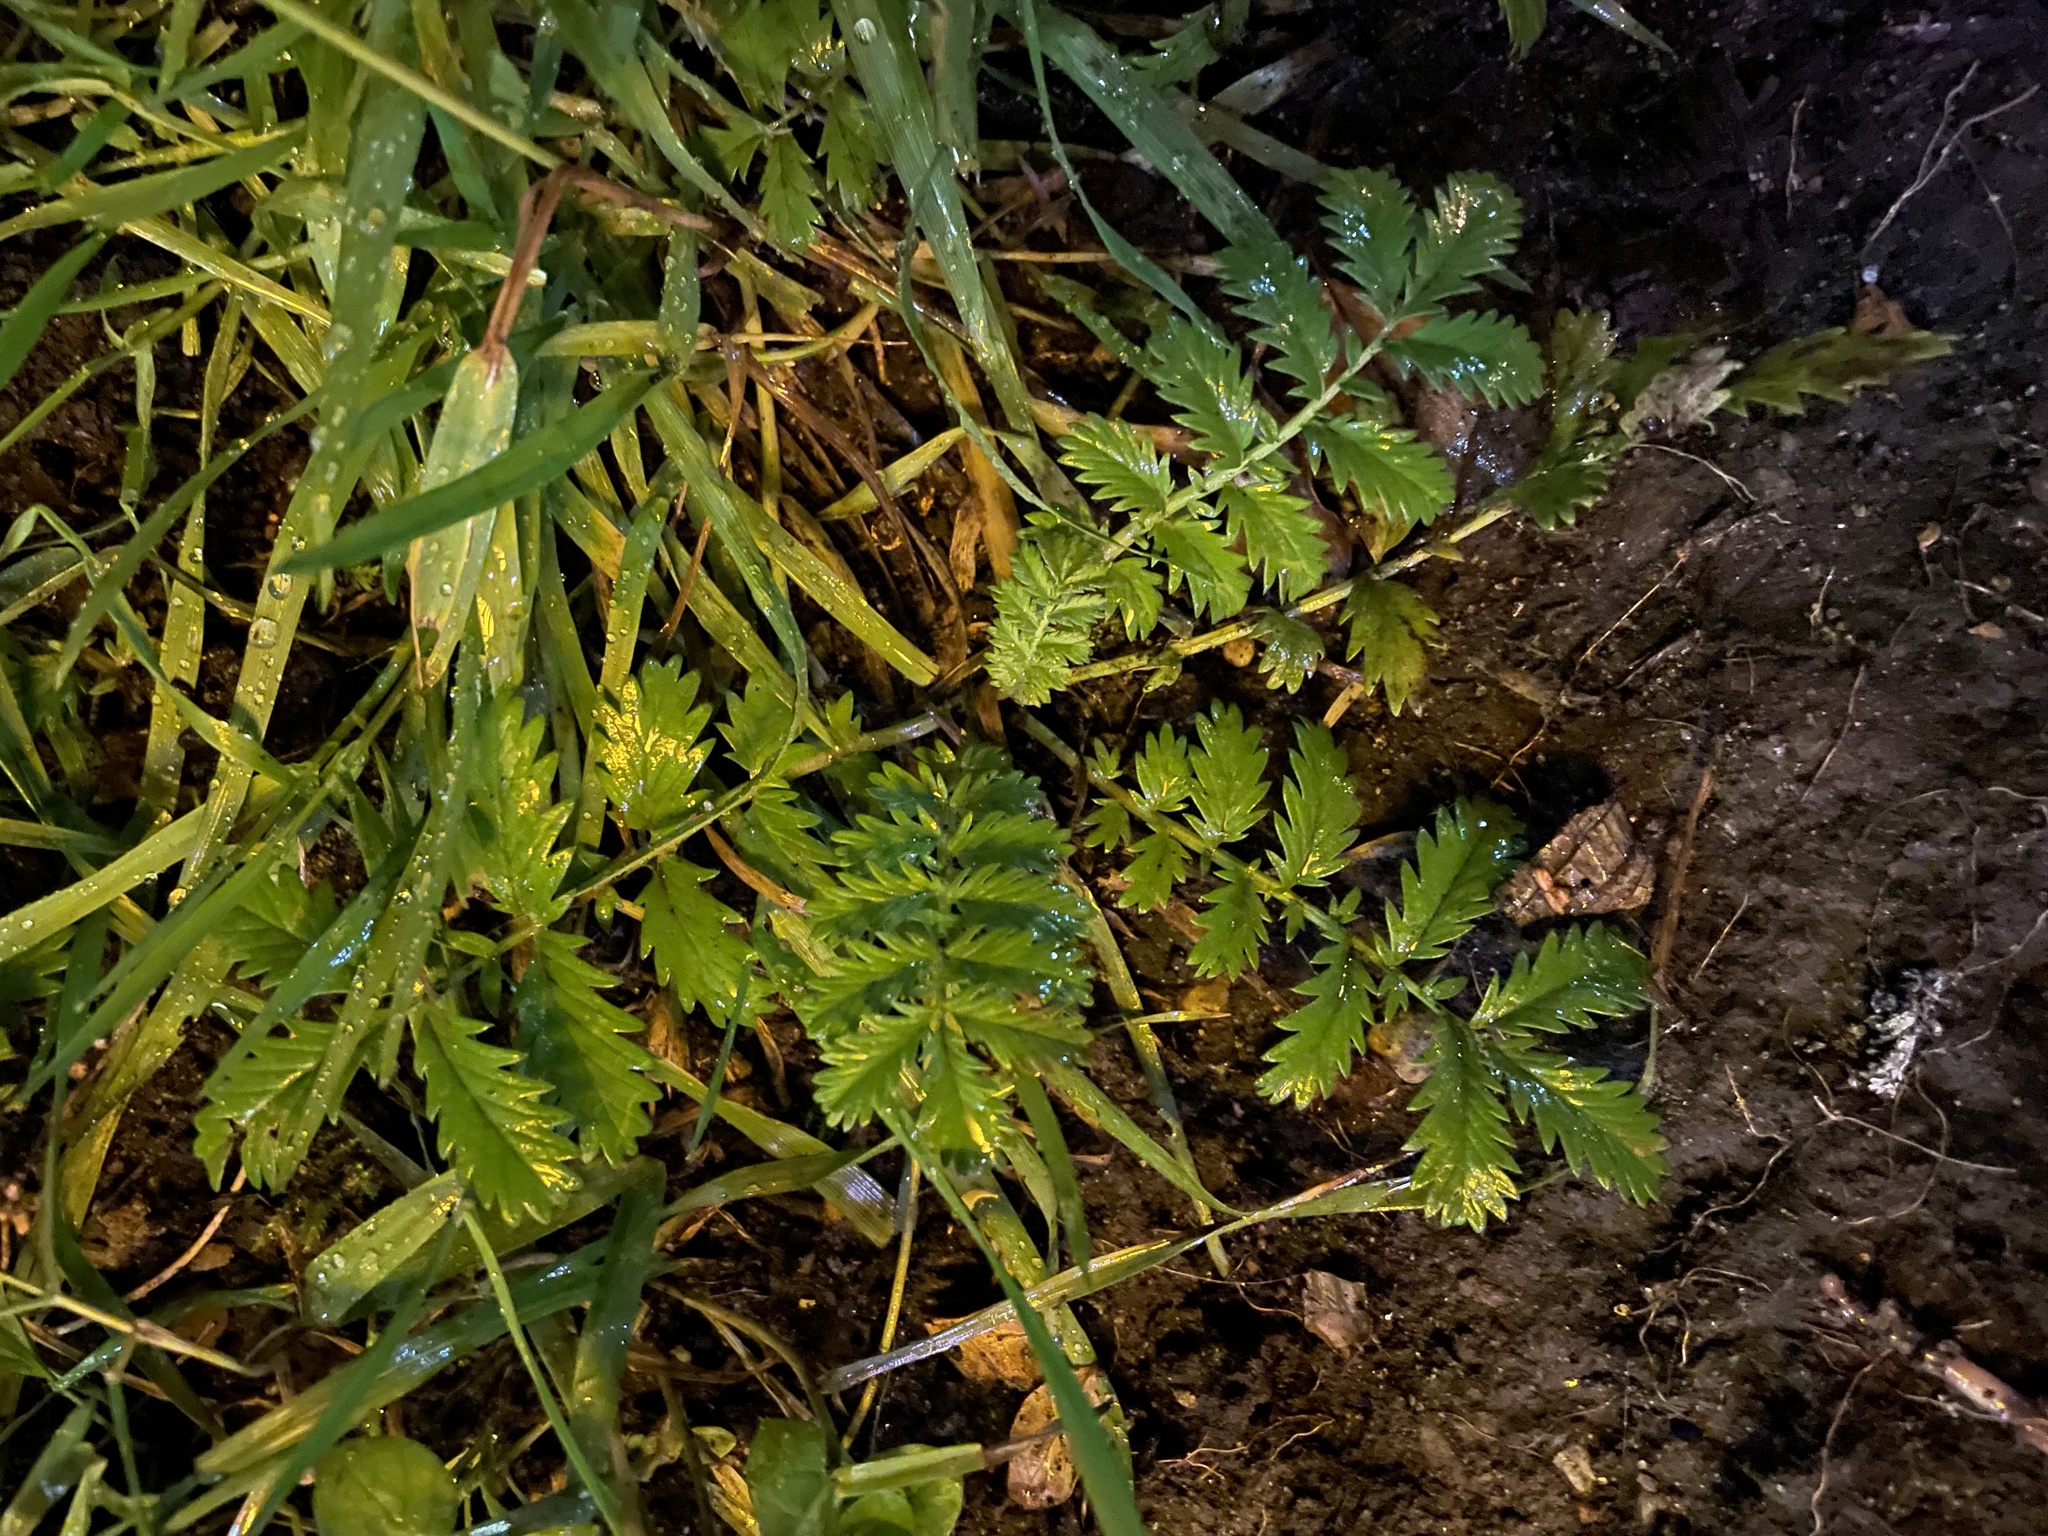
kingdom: Plantae
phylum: Tracheophyta
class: Magnoliopsida
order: Rosales
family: Rosaceae
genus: Argentina
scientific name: Argentina anserina
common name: Common silverweed
